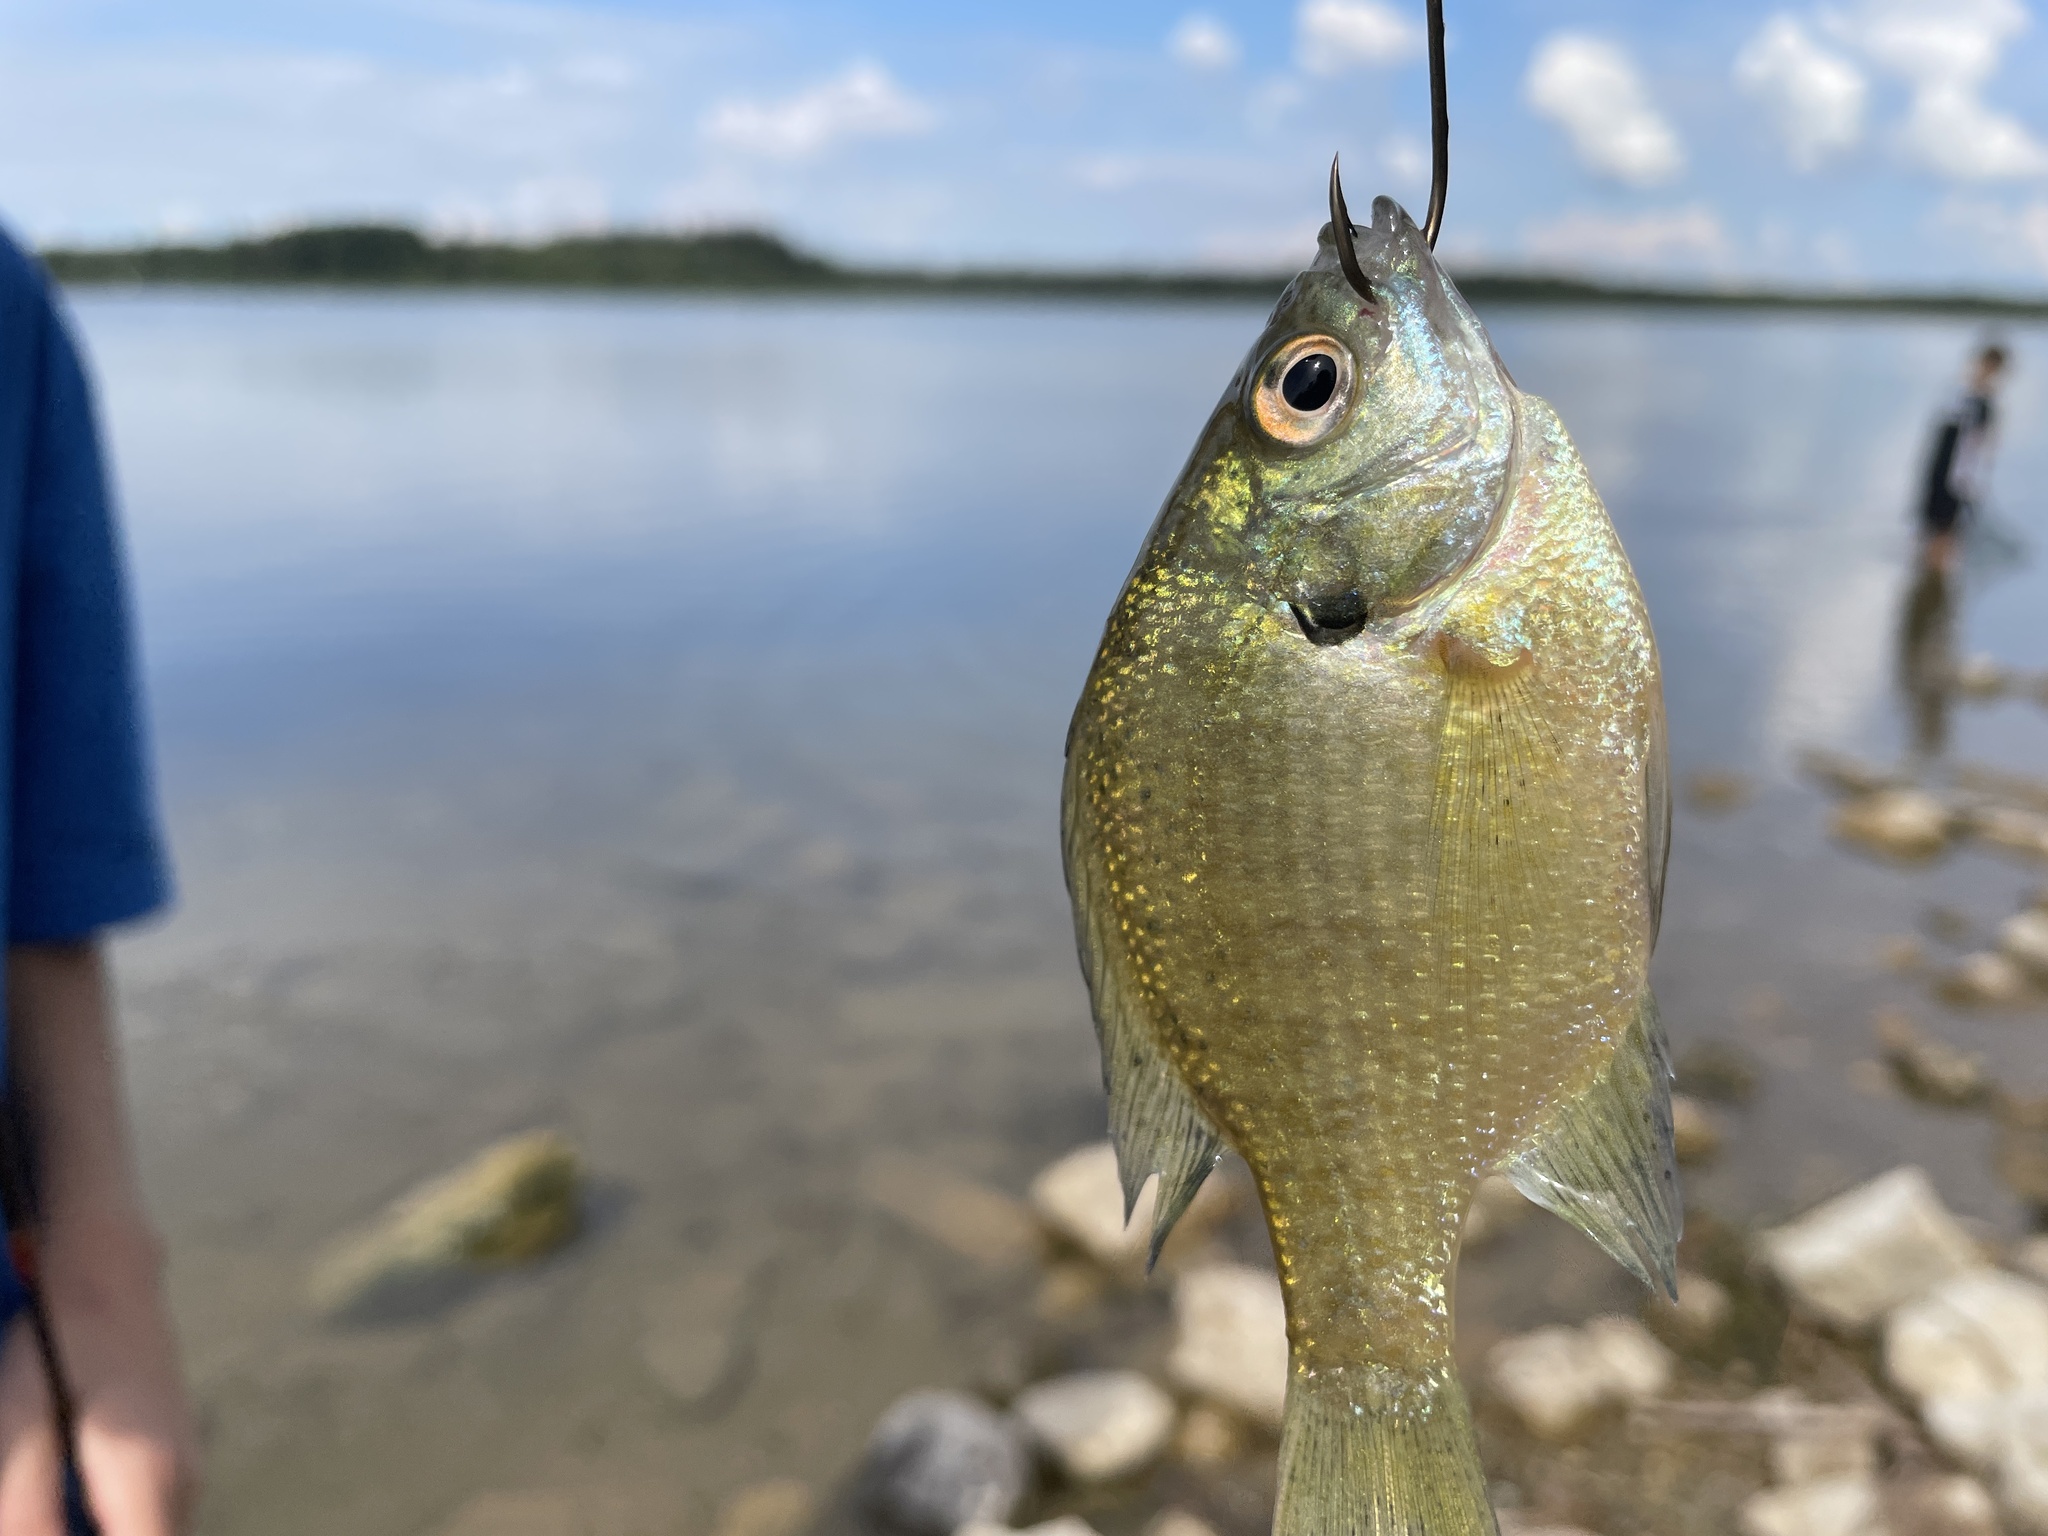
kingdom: Animalia
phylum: Chordata
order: Perciformes
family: Centrarchidae
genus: Lepomis
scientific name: Lepomis macrochirus
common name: Bluegill
